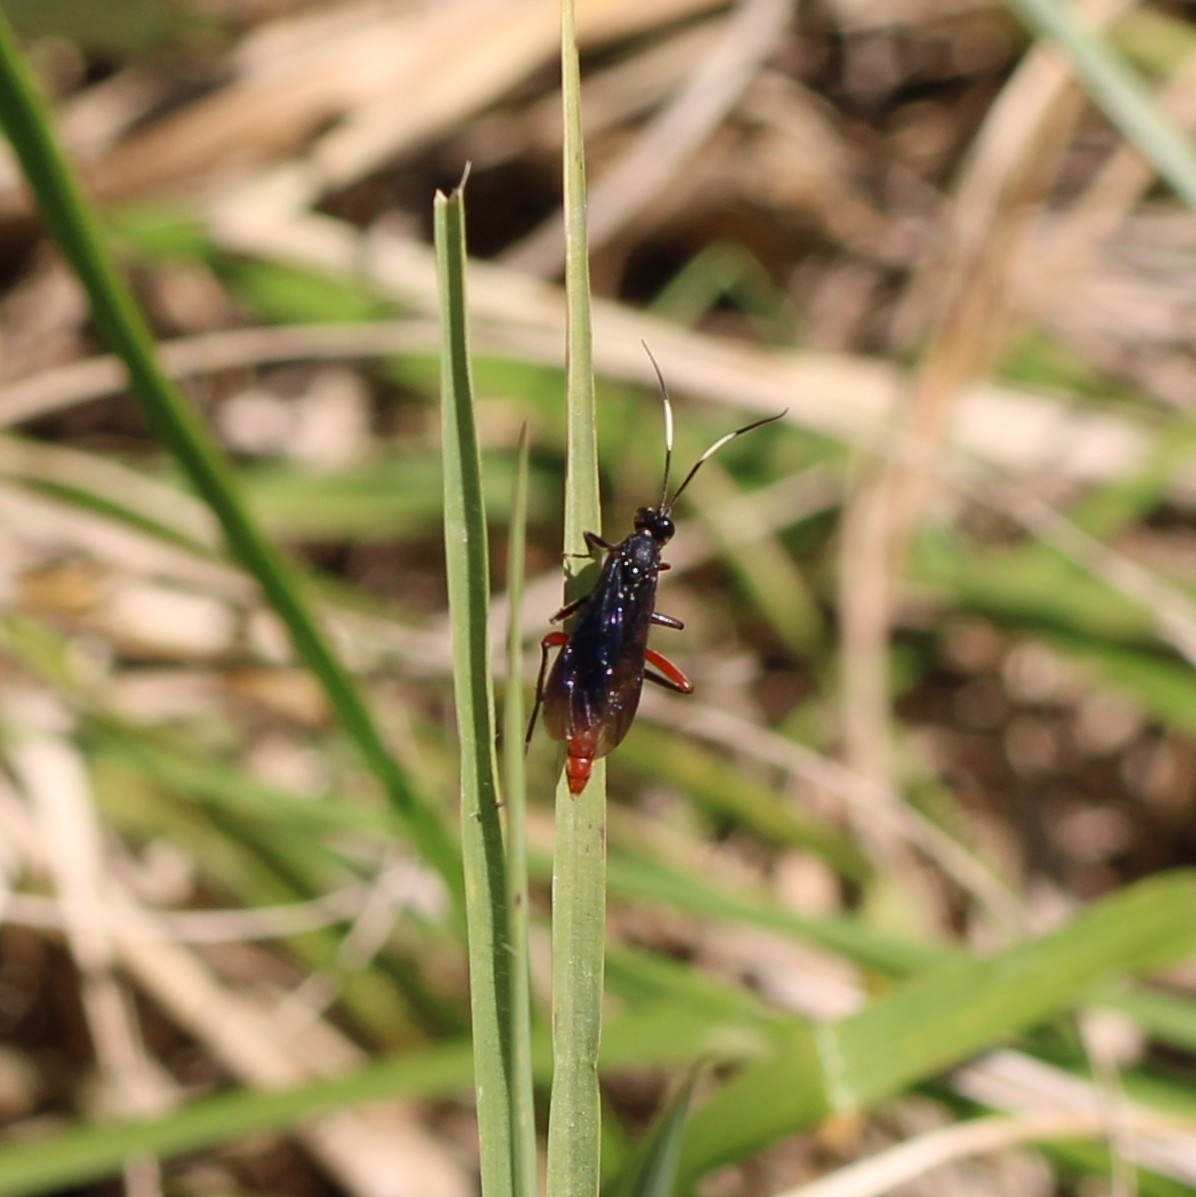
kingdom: Animalia
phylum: Arthropoda
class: Insecta
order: Hymenoptera
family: Ichneumonidae
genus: Limonethe
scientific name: Limonethe maurator
